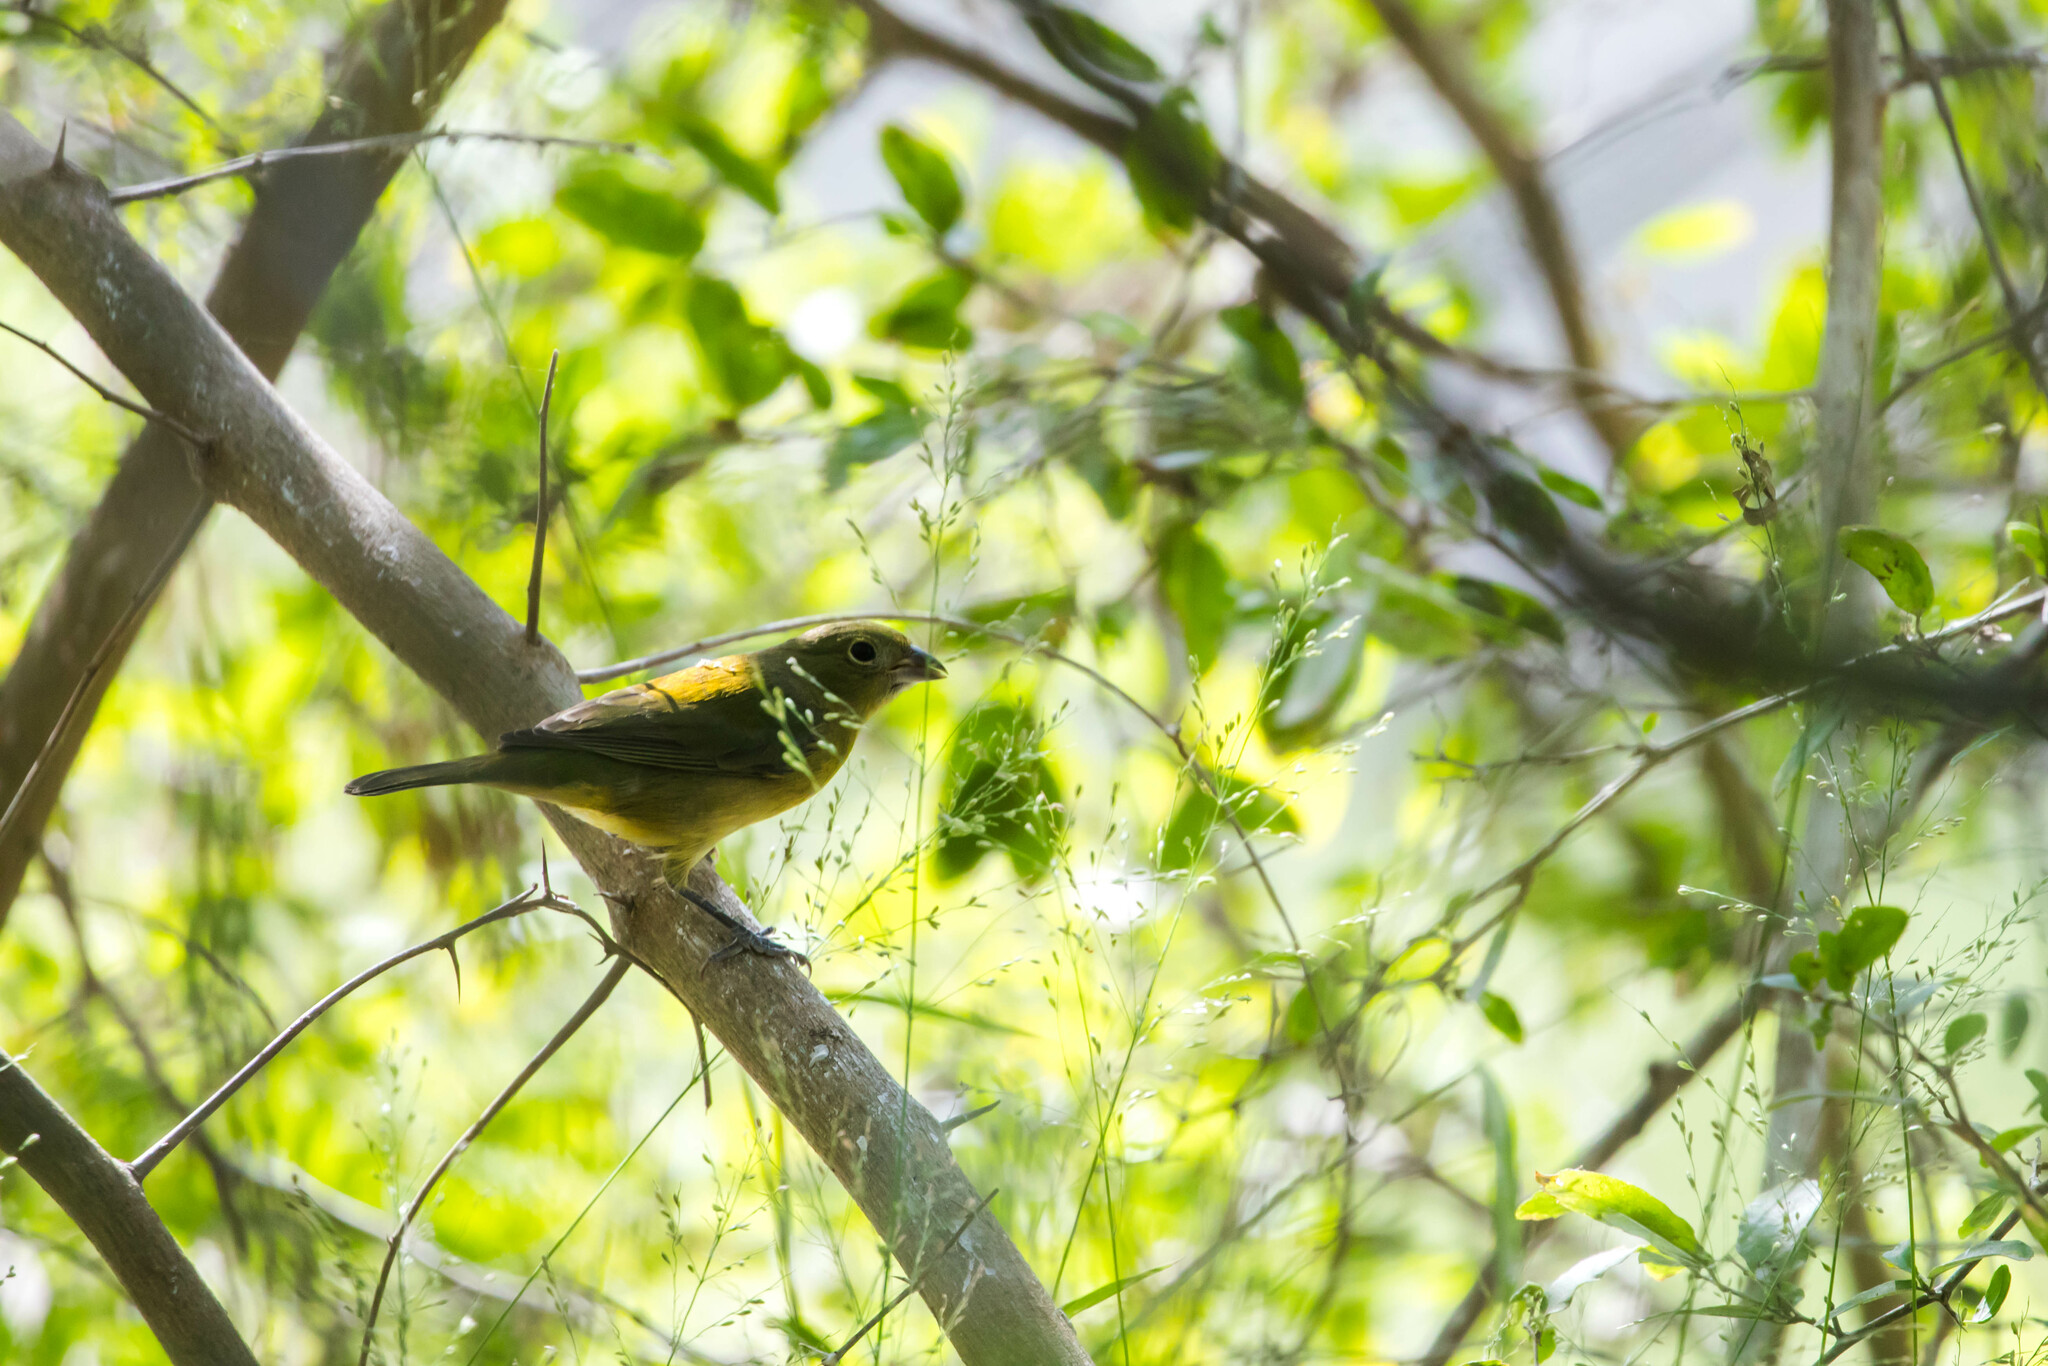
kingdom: Animalia
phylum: Chordata
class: Aves
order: Passeriformes
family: Cardinalidae
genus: Passerina
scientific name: Passerina ciris
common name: Painted bunting
